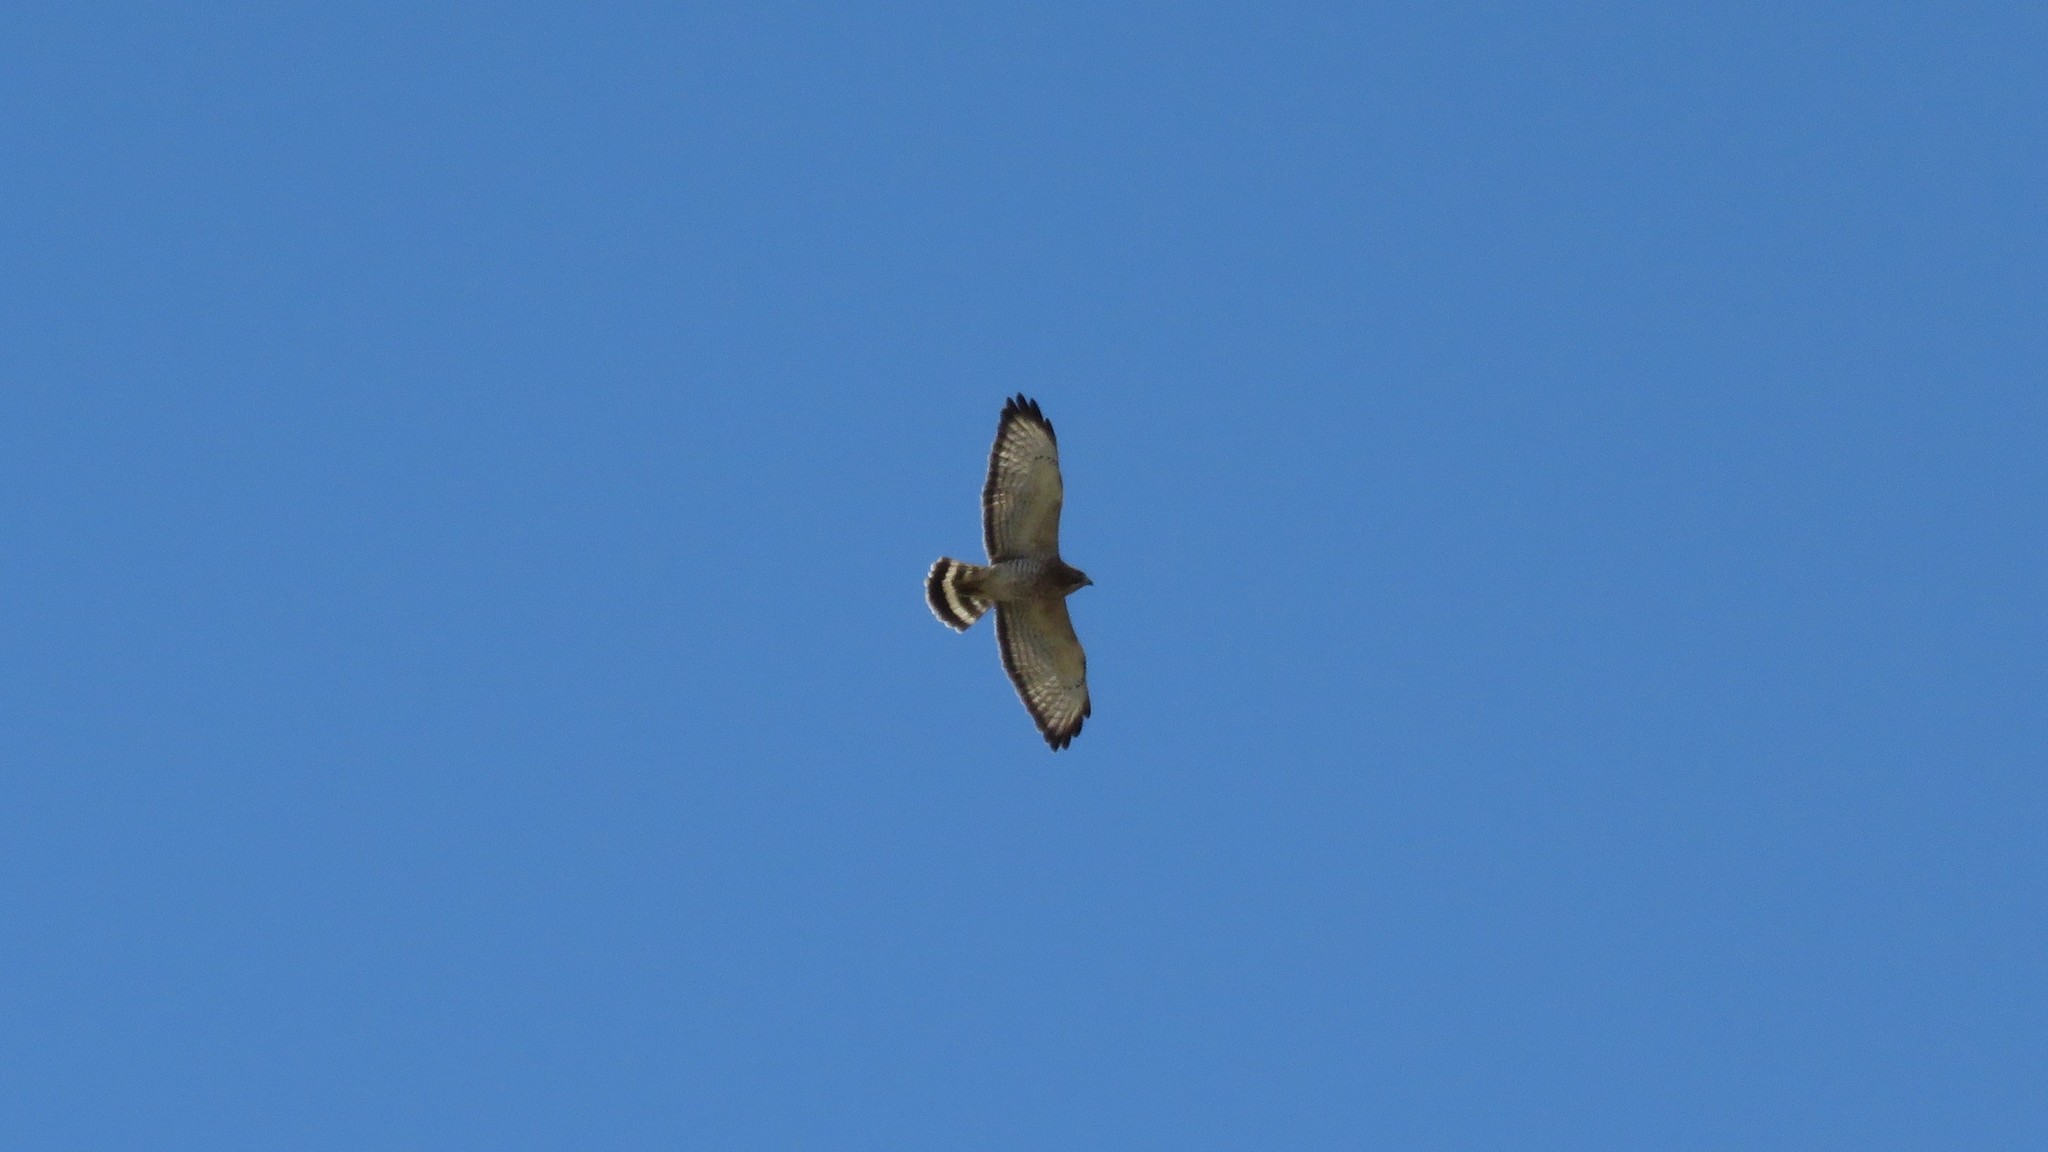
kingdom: Animalia
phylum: Chordata
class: Aves
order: Accipitriformes
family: Accipitridae
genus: Buteo
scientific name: Buteo platypterus
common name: Broad-winged hawk
